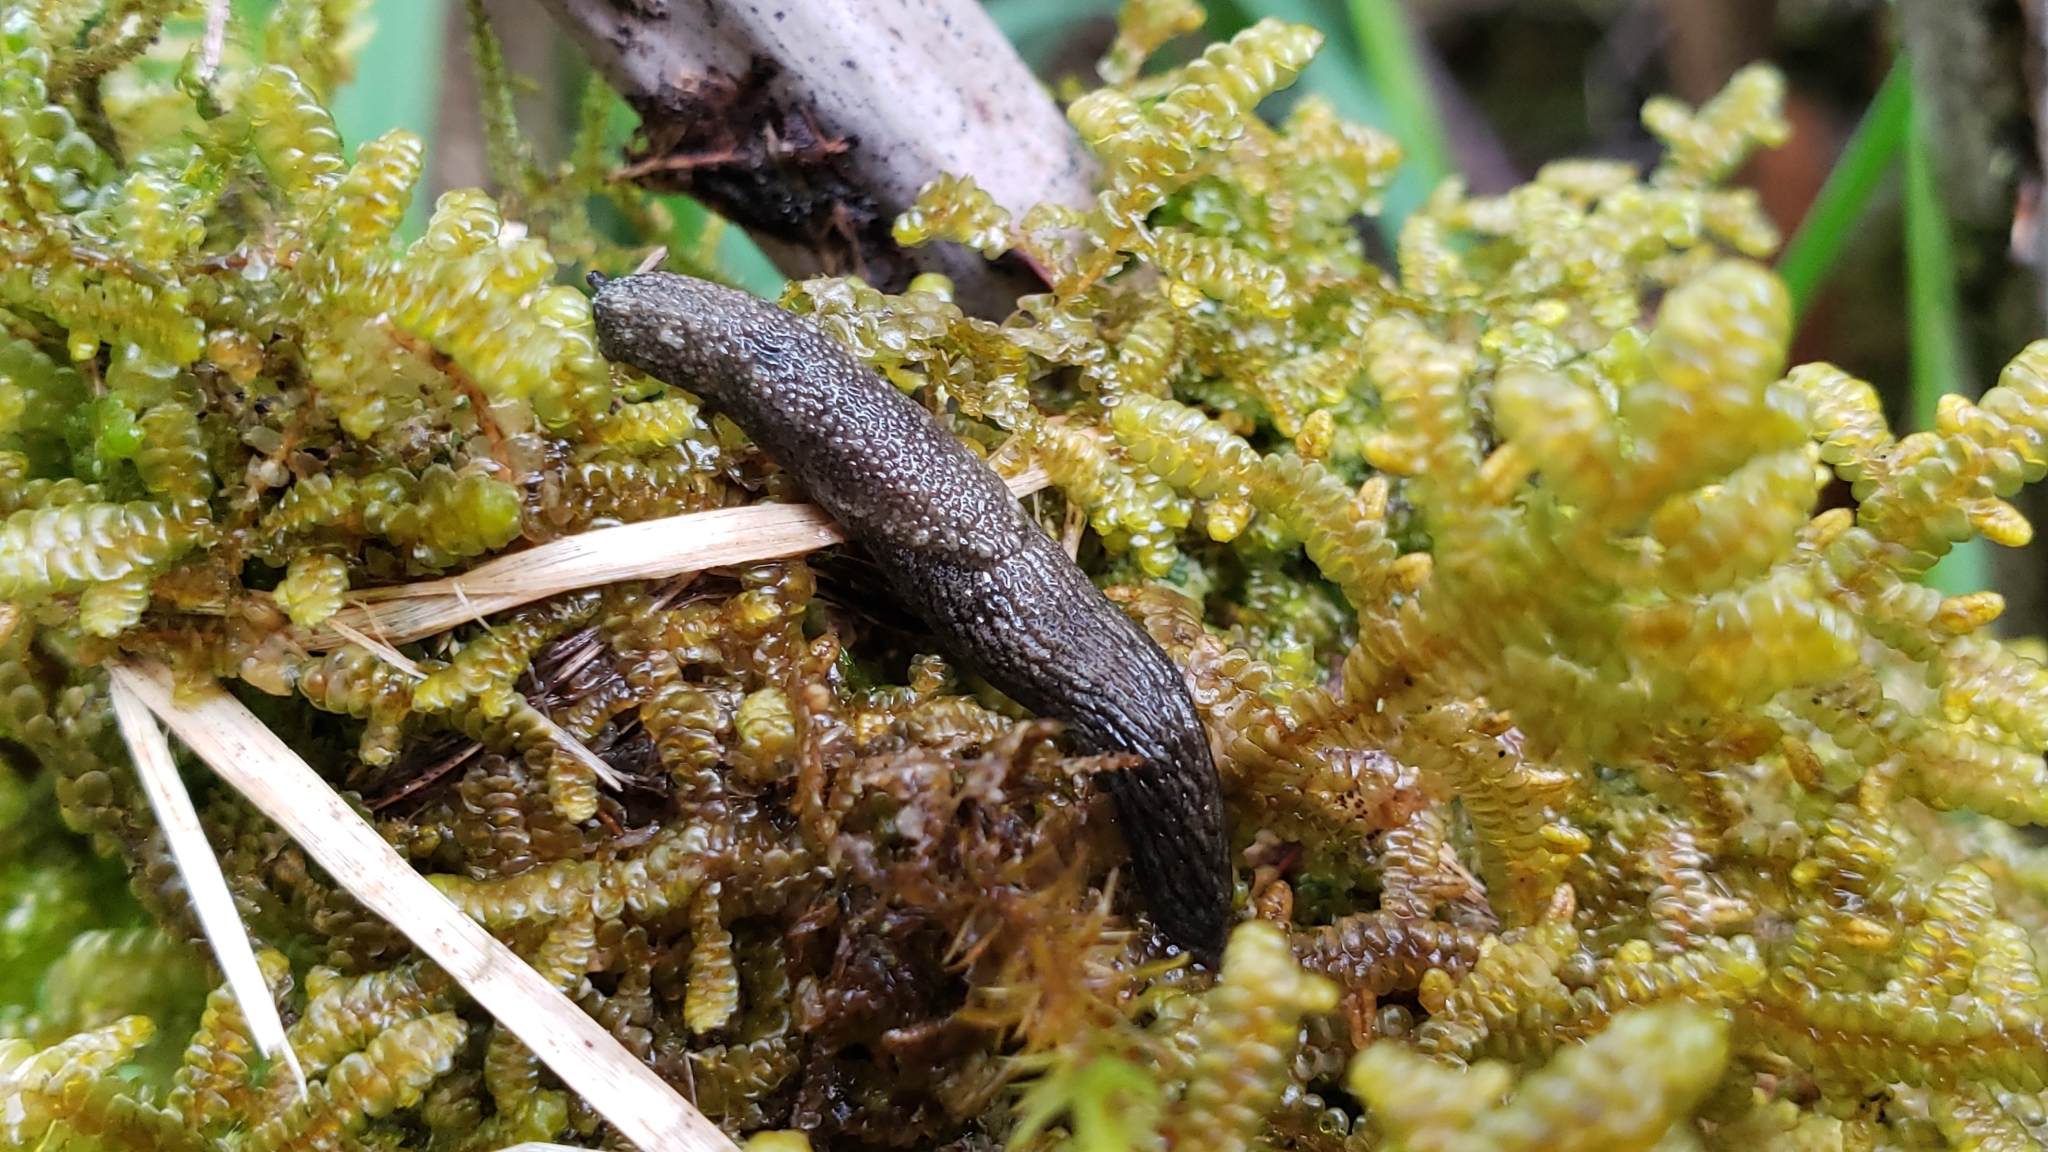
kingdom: Animalia
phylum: Mollusca
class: Gastropoda
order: Stylommatophora
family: Ariolimacidae
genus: Prophysaon
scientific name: Prophysaon vanattae
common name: Scarletback taildropper
